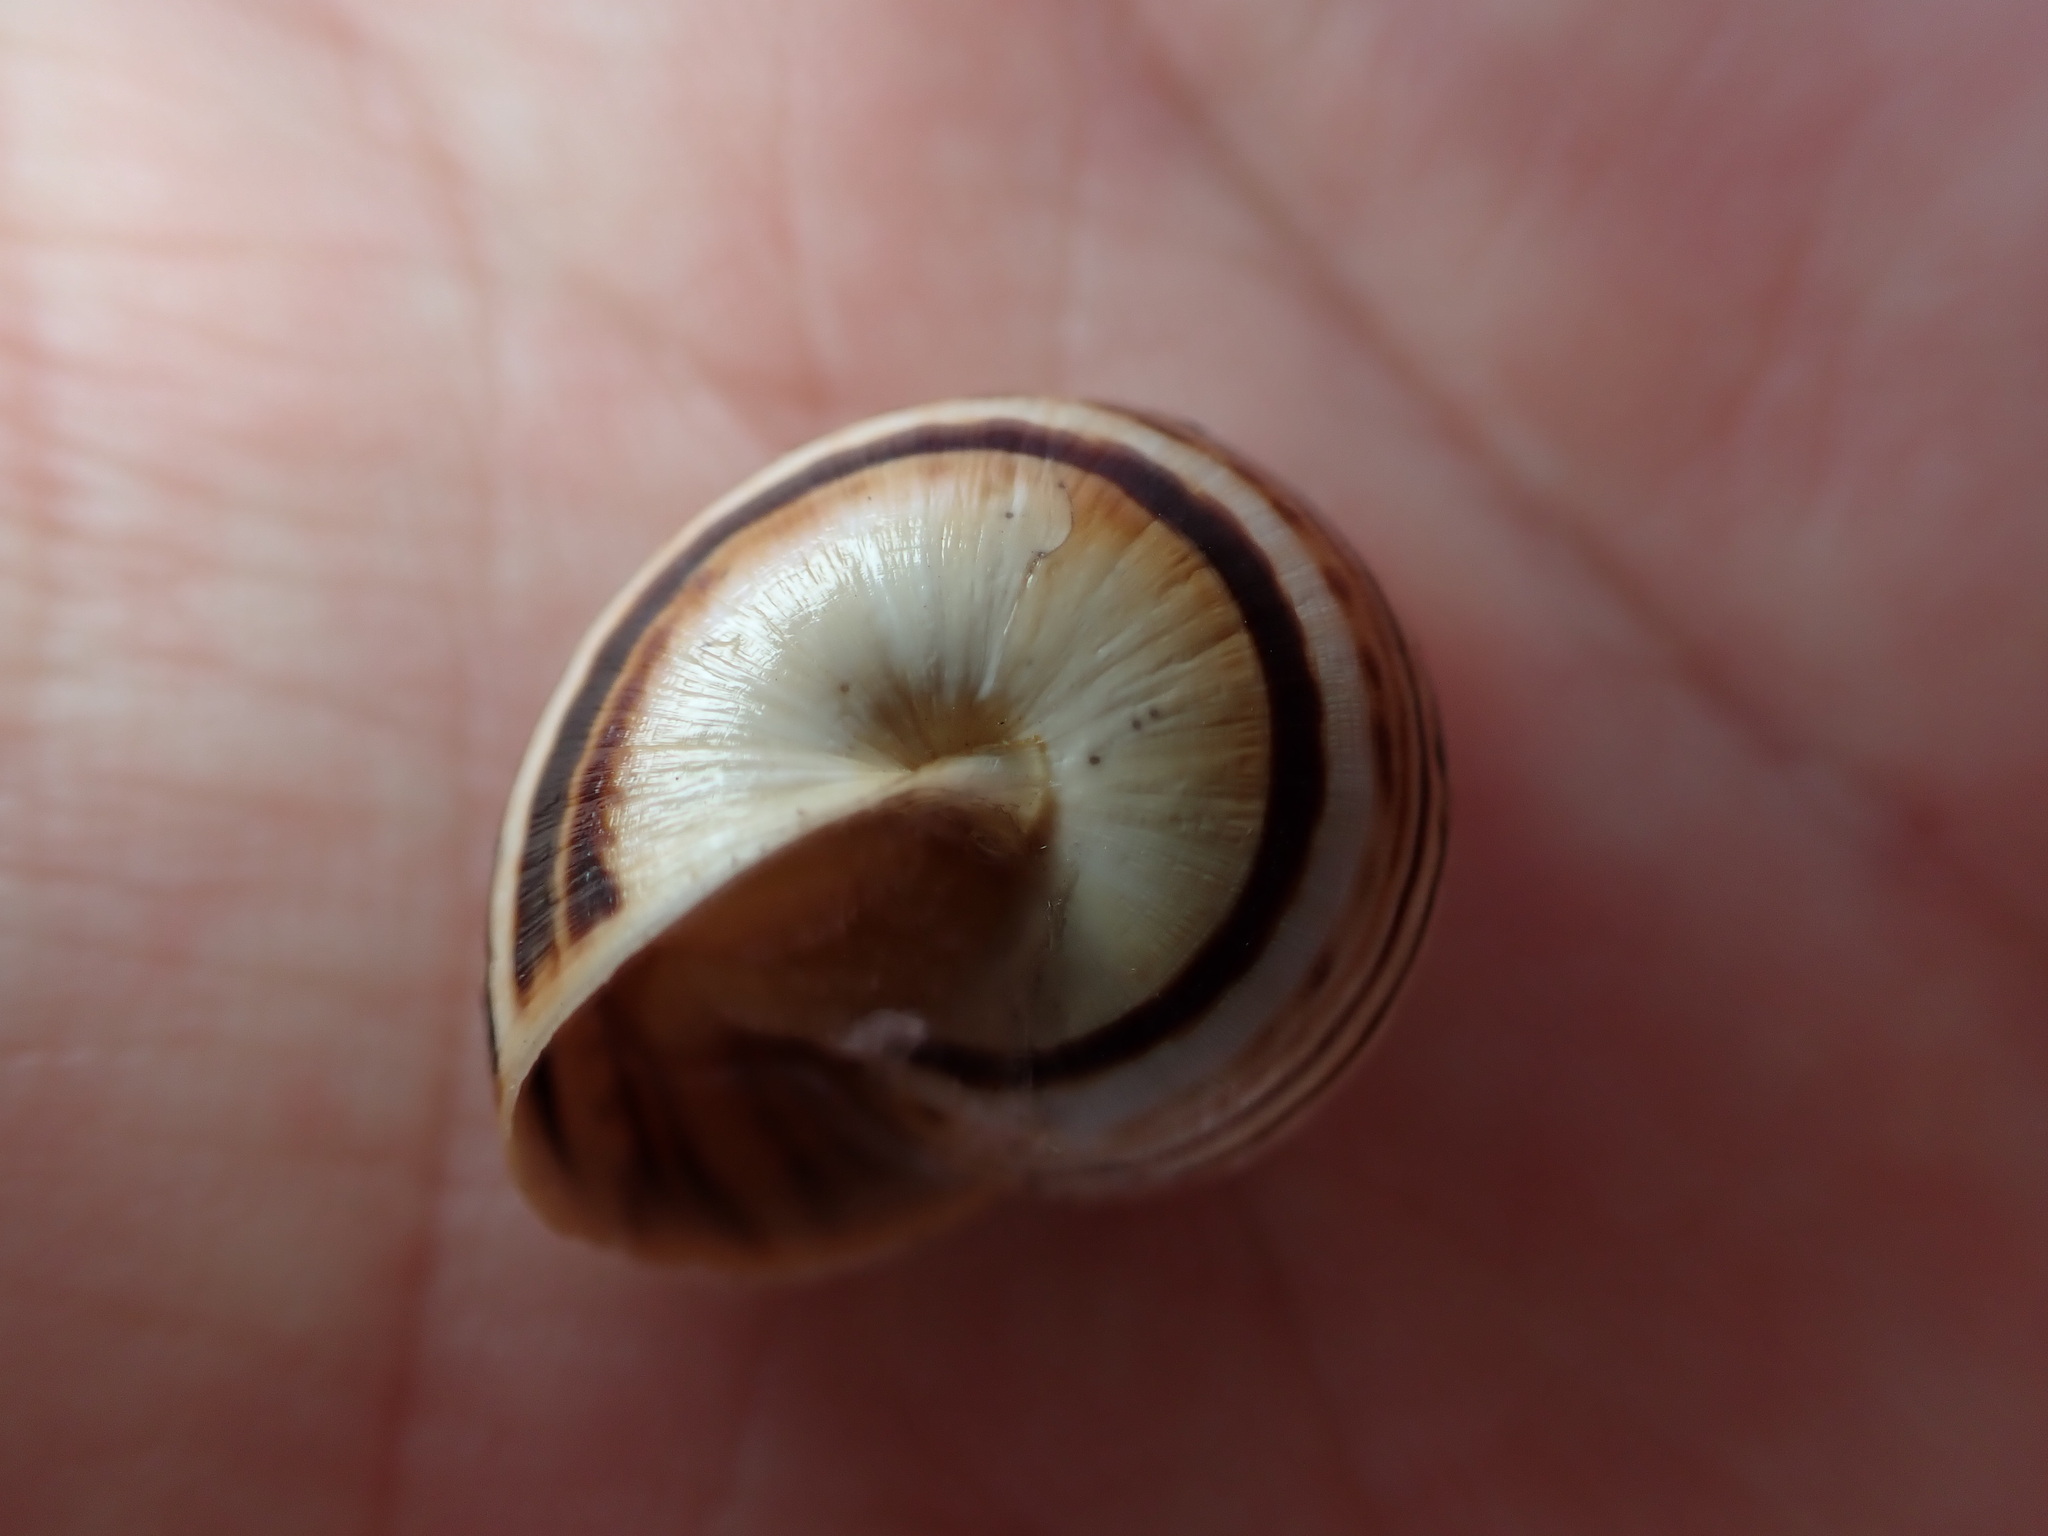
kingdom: Animalia
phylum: Mollusca
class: Gastropoda
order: Stylommatophora
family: Helicidae
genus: Theba
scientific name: Theba pisana
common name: White snail
